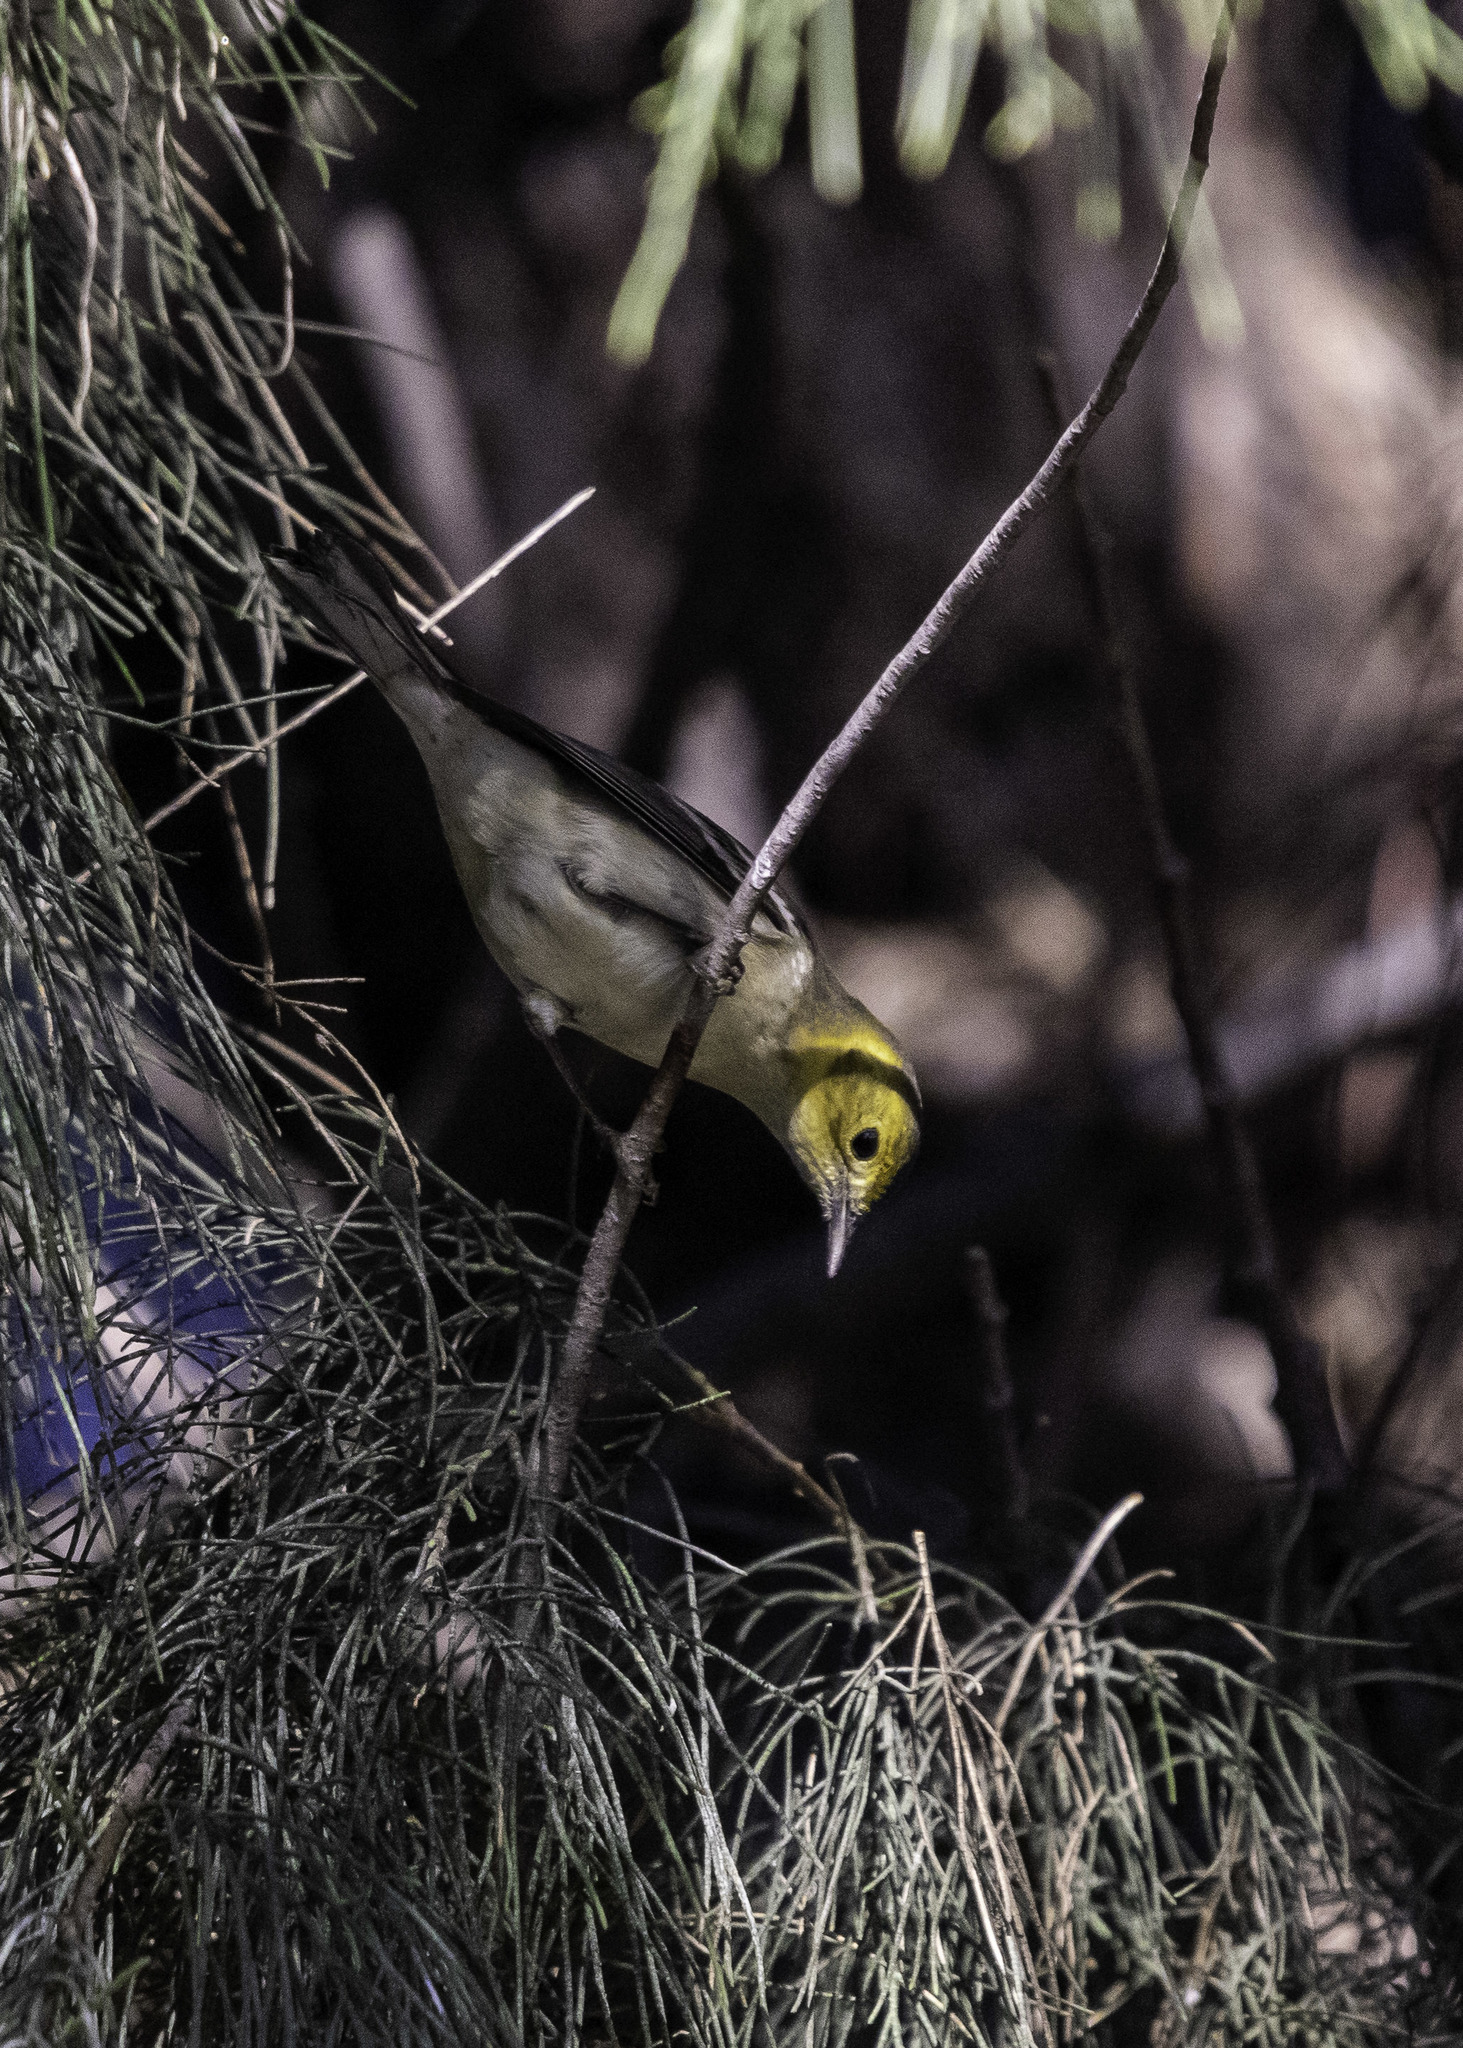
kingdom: Animalia
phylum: Chordata
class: Aves
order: Passeriformes
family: Parulidae
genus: Setophaga
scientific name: Setophaga occidentalis
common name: Hermit warbler
